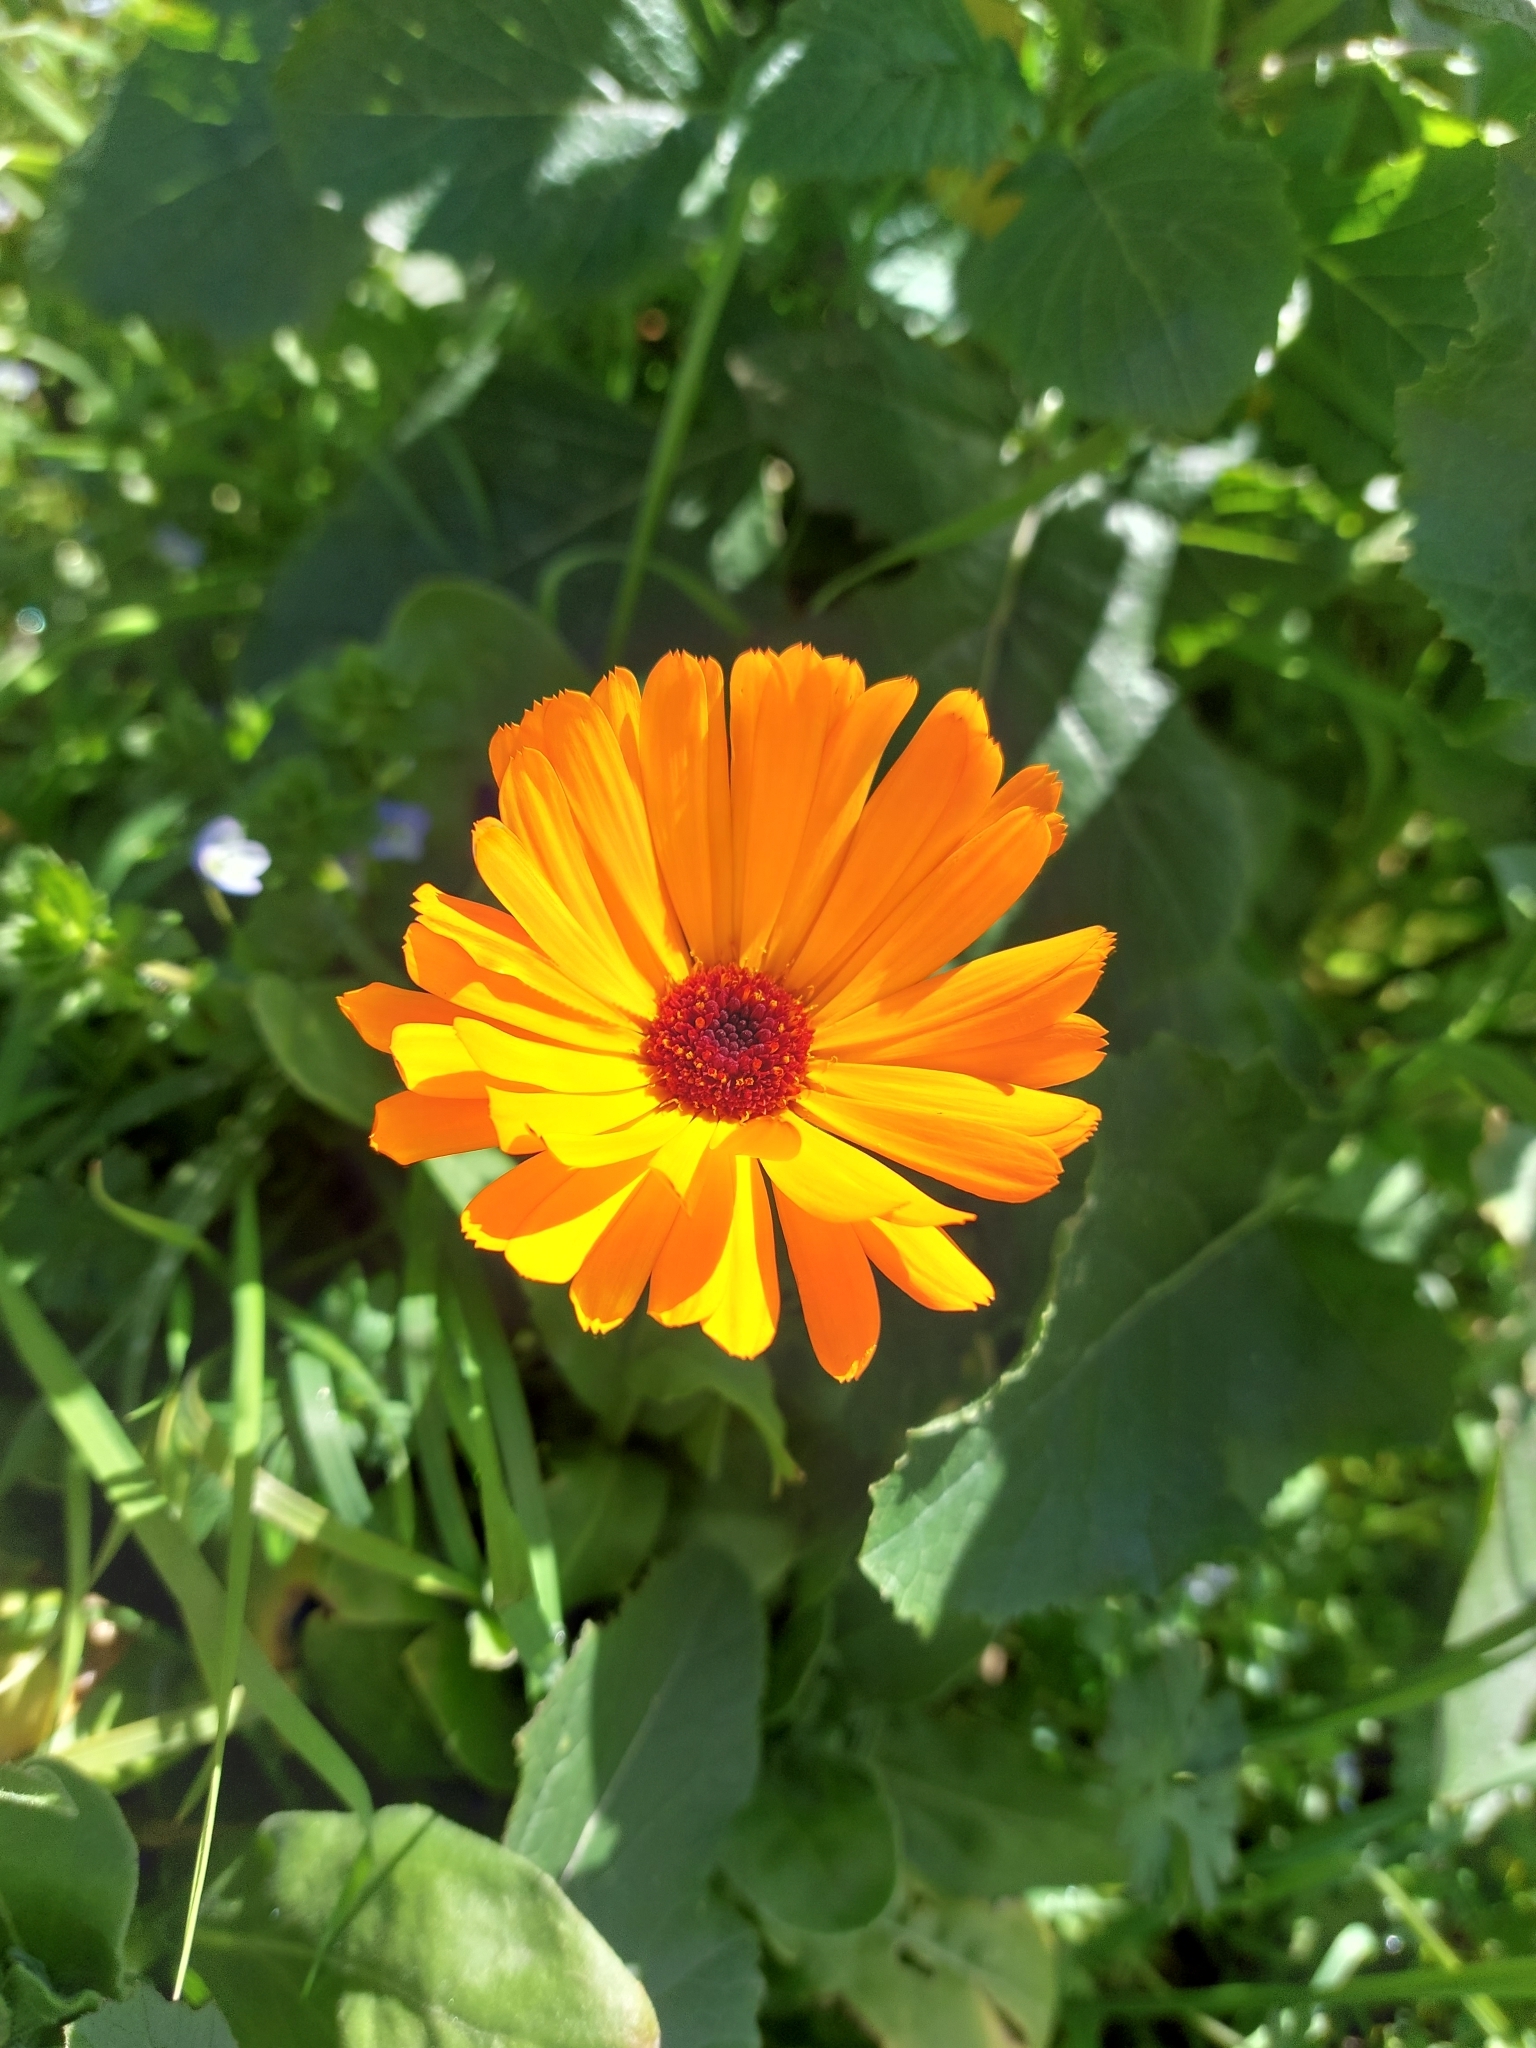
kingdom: Plantae
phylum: Tracheophyta
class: Magnoliopsida
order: Asterales
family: Asteraceae
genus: Calendula
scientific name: Calendula officinalis
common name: Pot marigold
